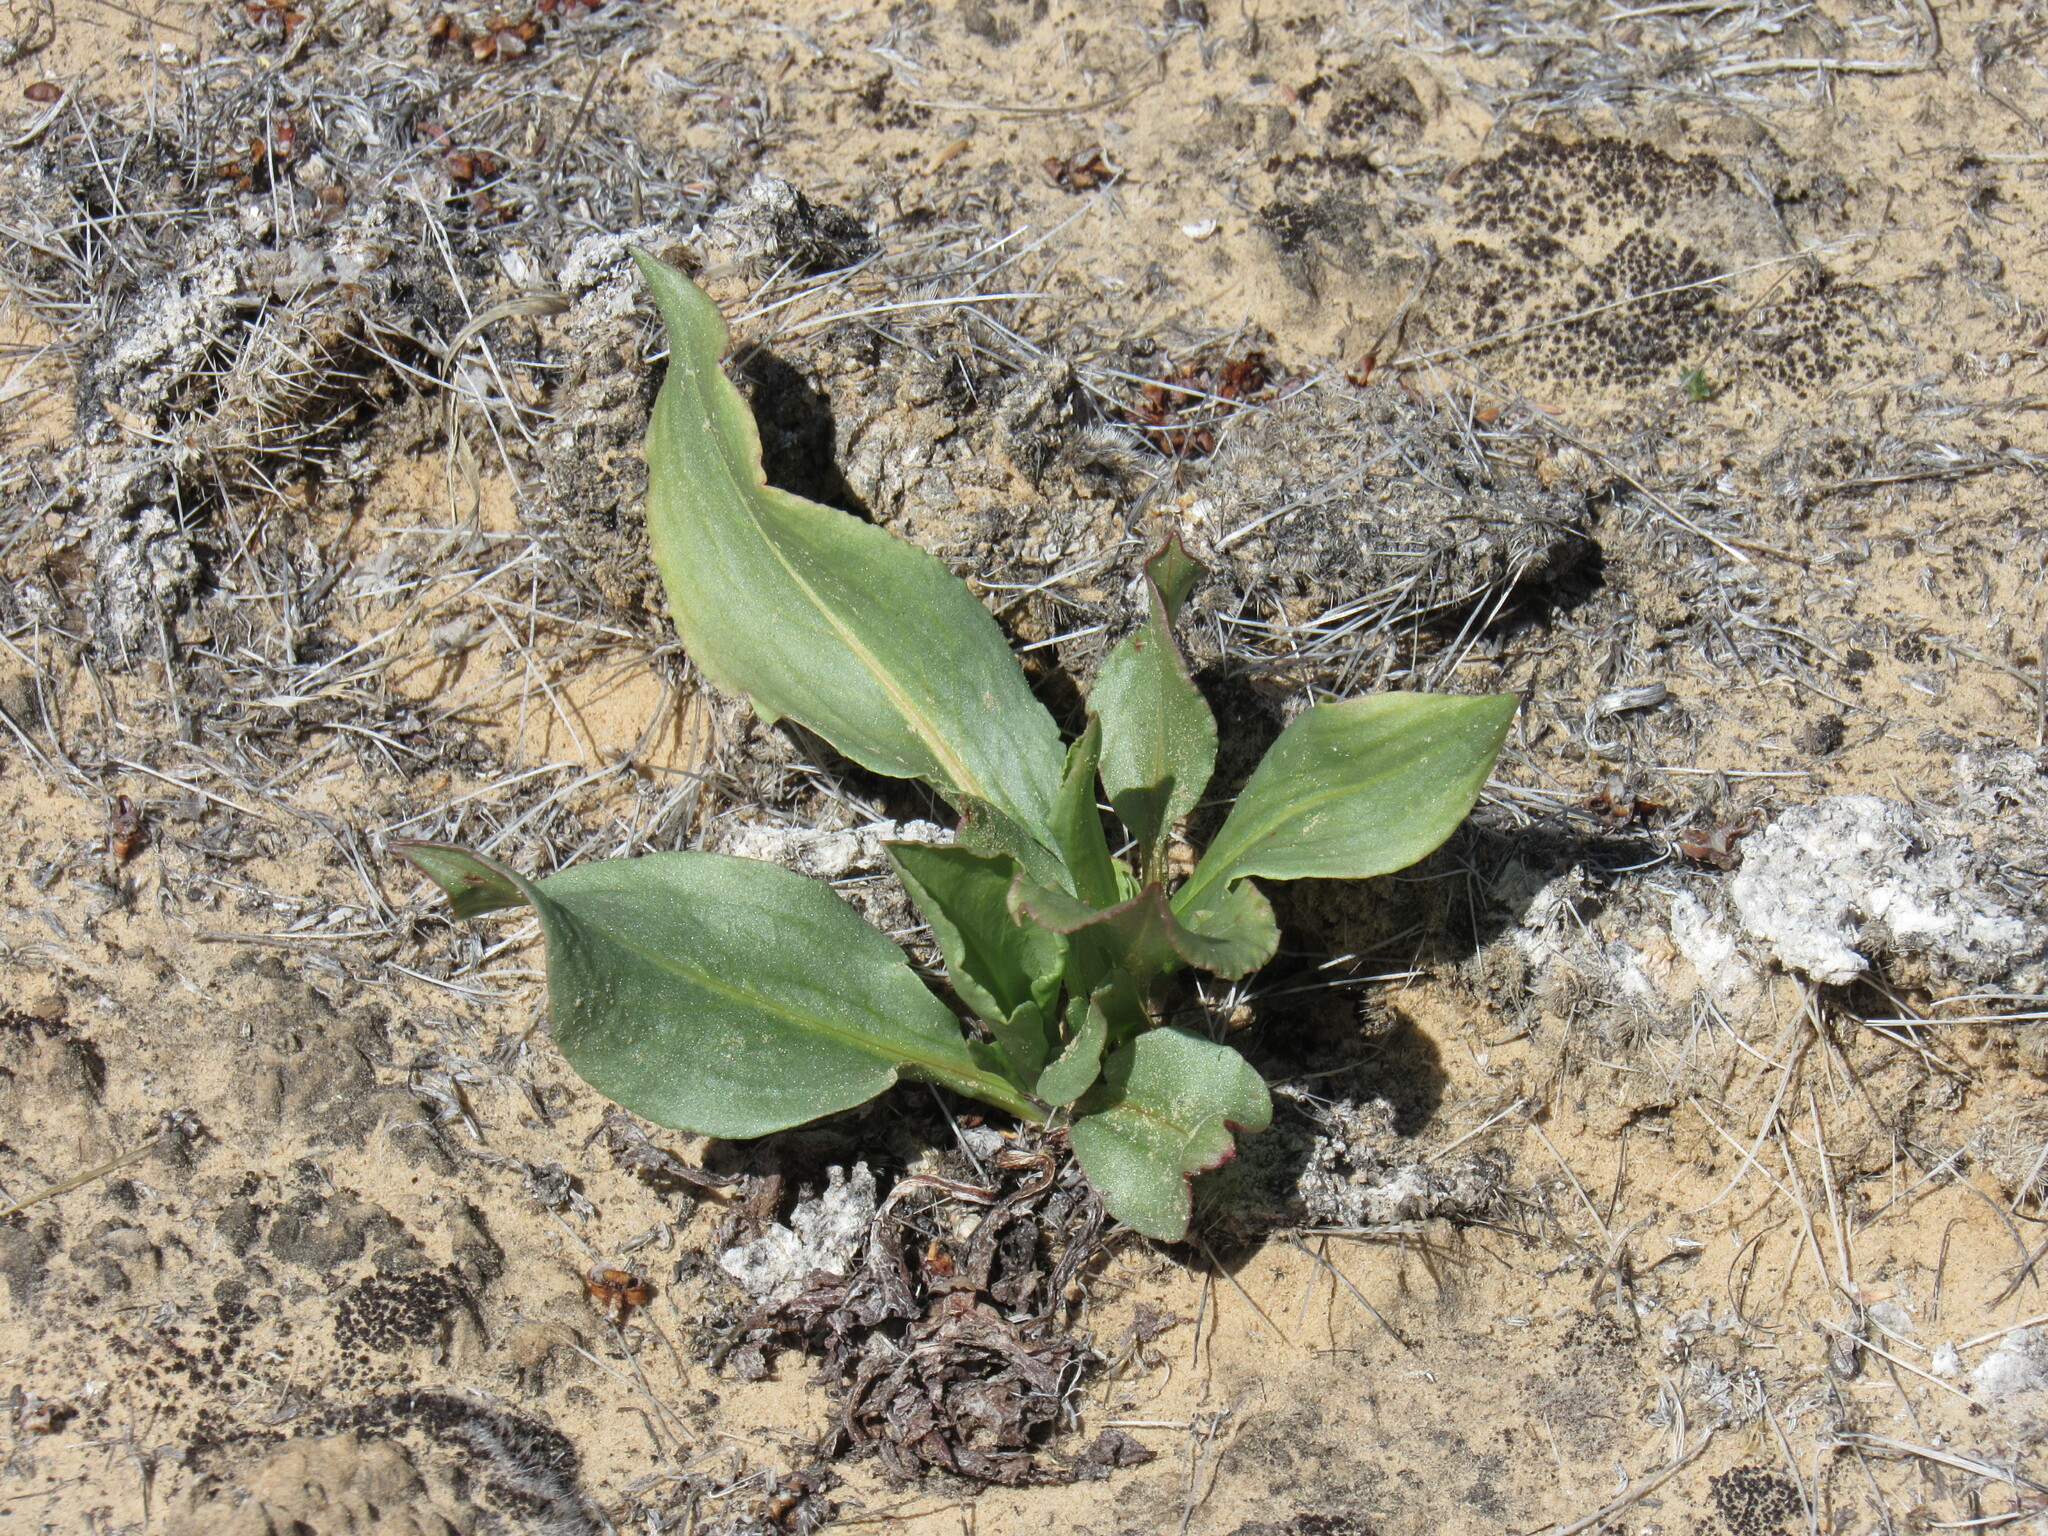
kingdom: Plantae
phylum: Tracheophyta
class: Magnoliopsida
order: Caryophyllales
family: Polygonaceae
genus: Rumex
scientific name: Rumex hymenosepalus
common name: Ganagra
